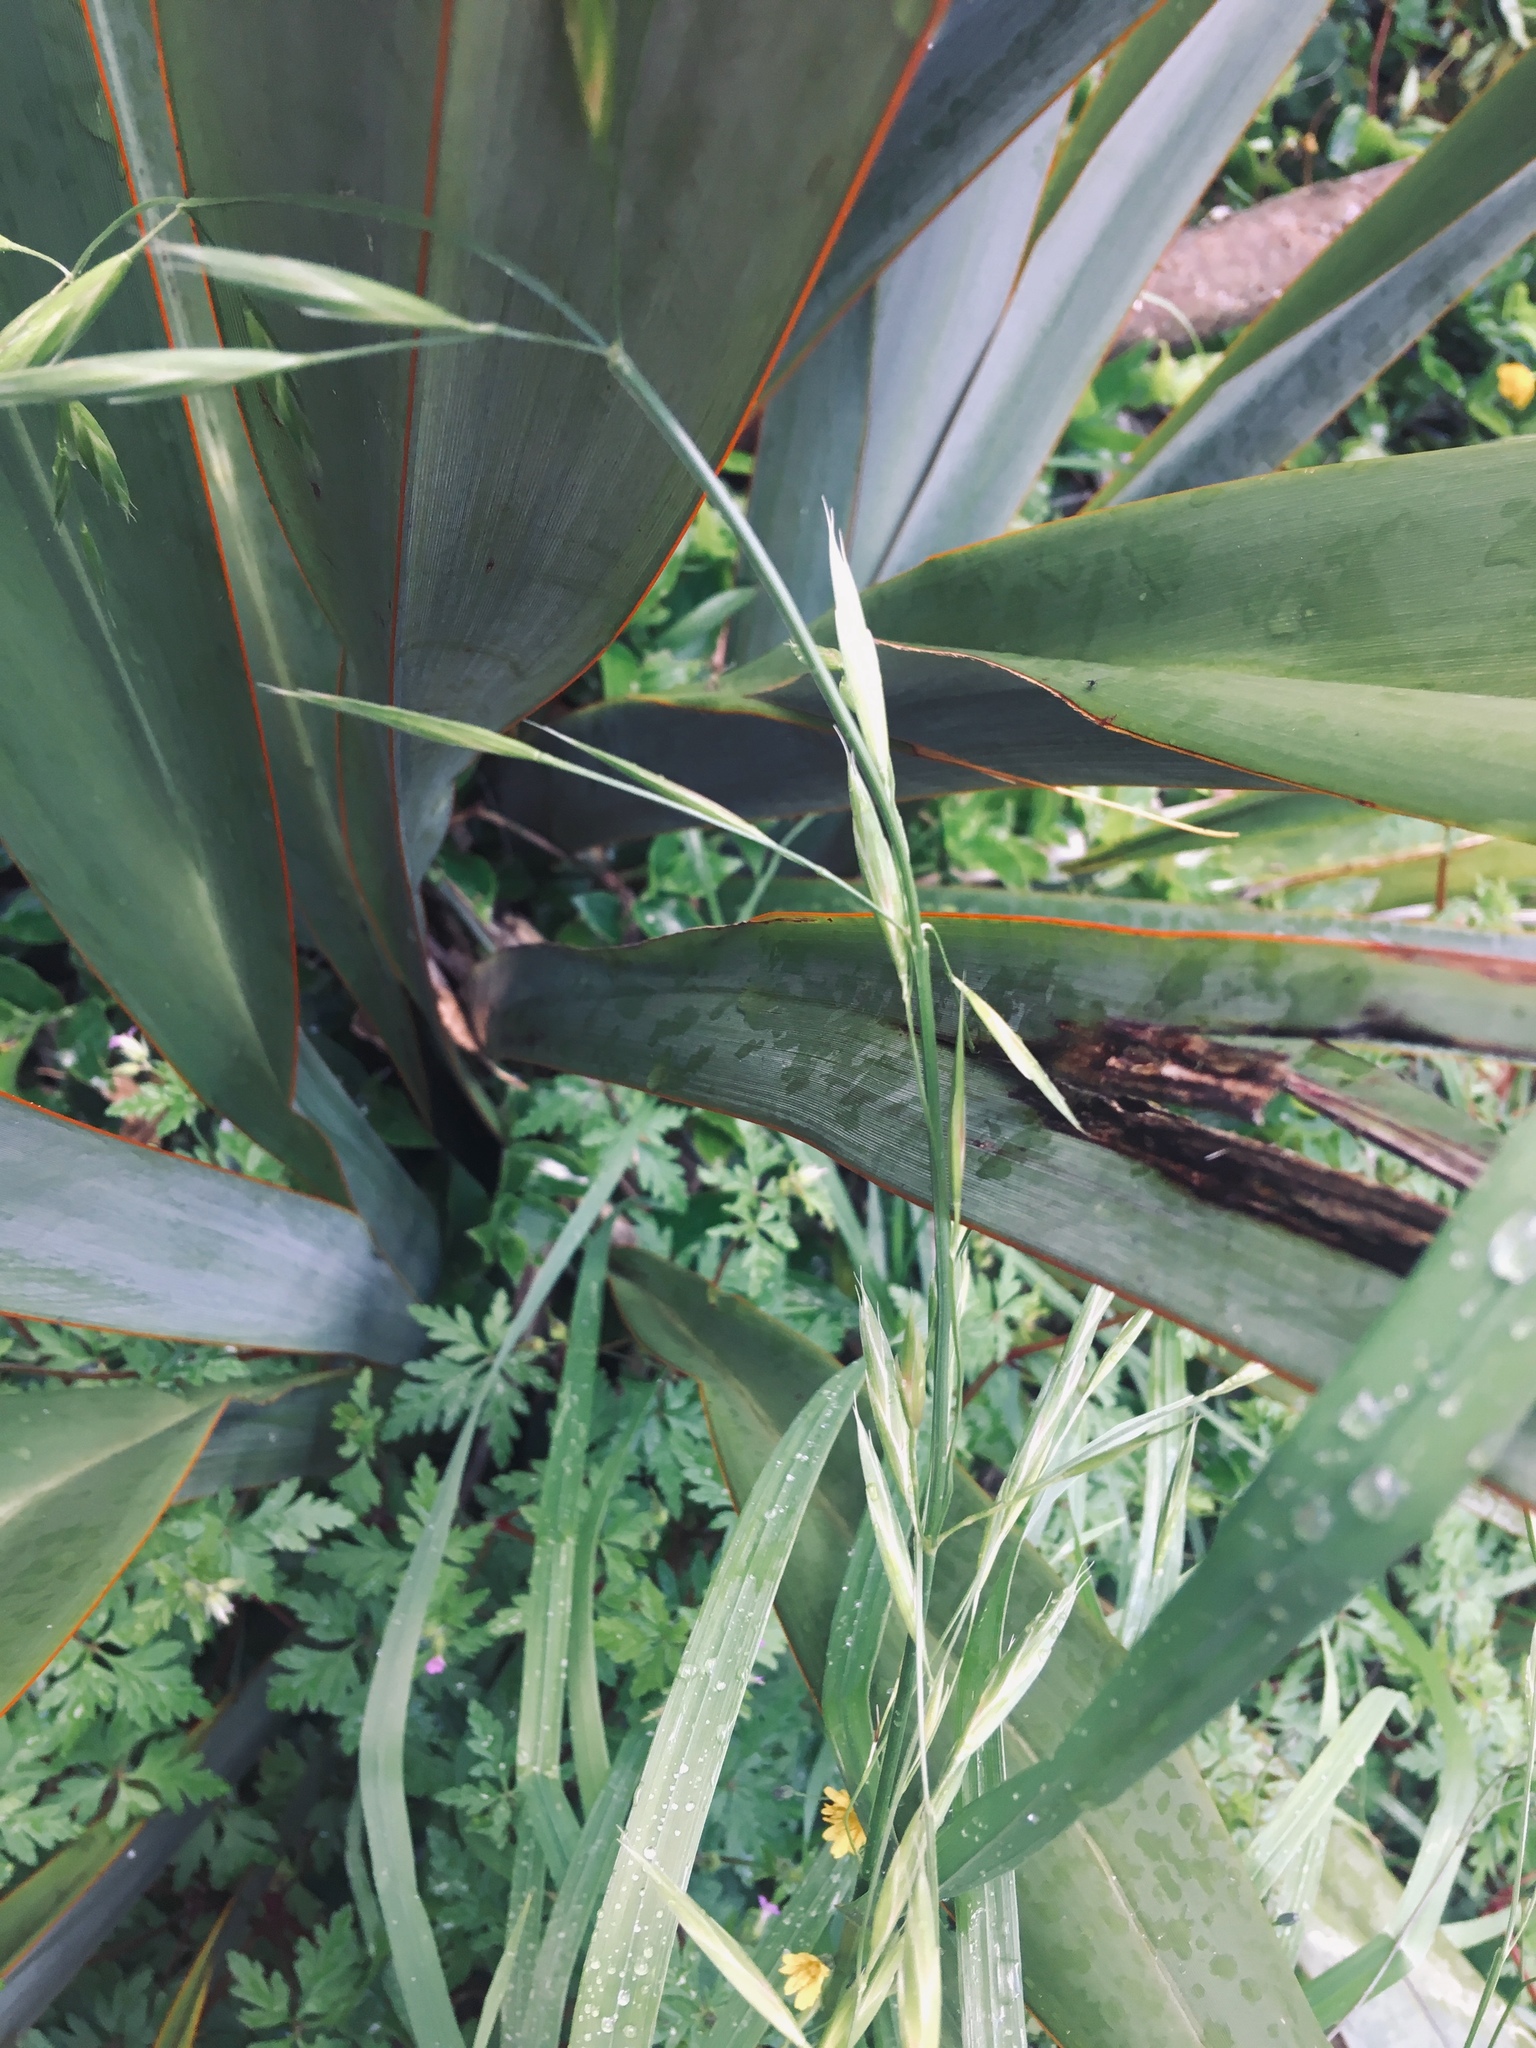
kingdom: Plantae
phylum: Tracheophyta
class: Liliopsida
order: Poales
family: Poaceae
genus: Bromus
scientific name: Bromus catharticus
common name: Rescuegrass
